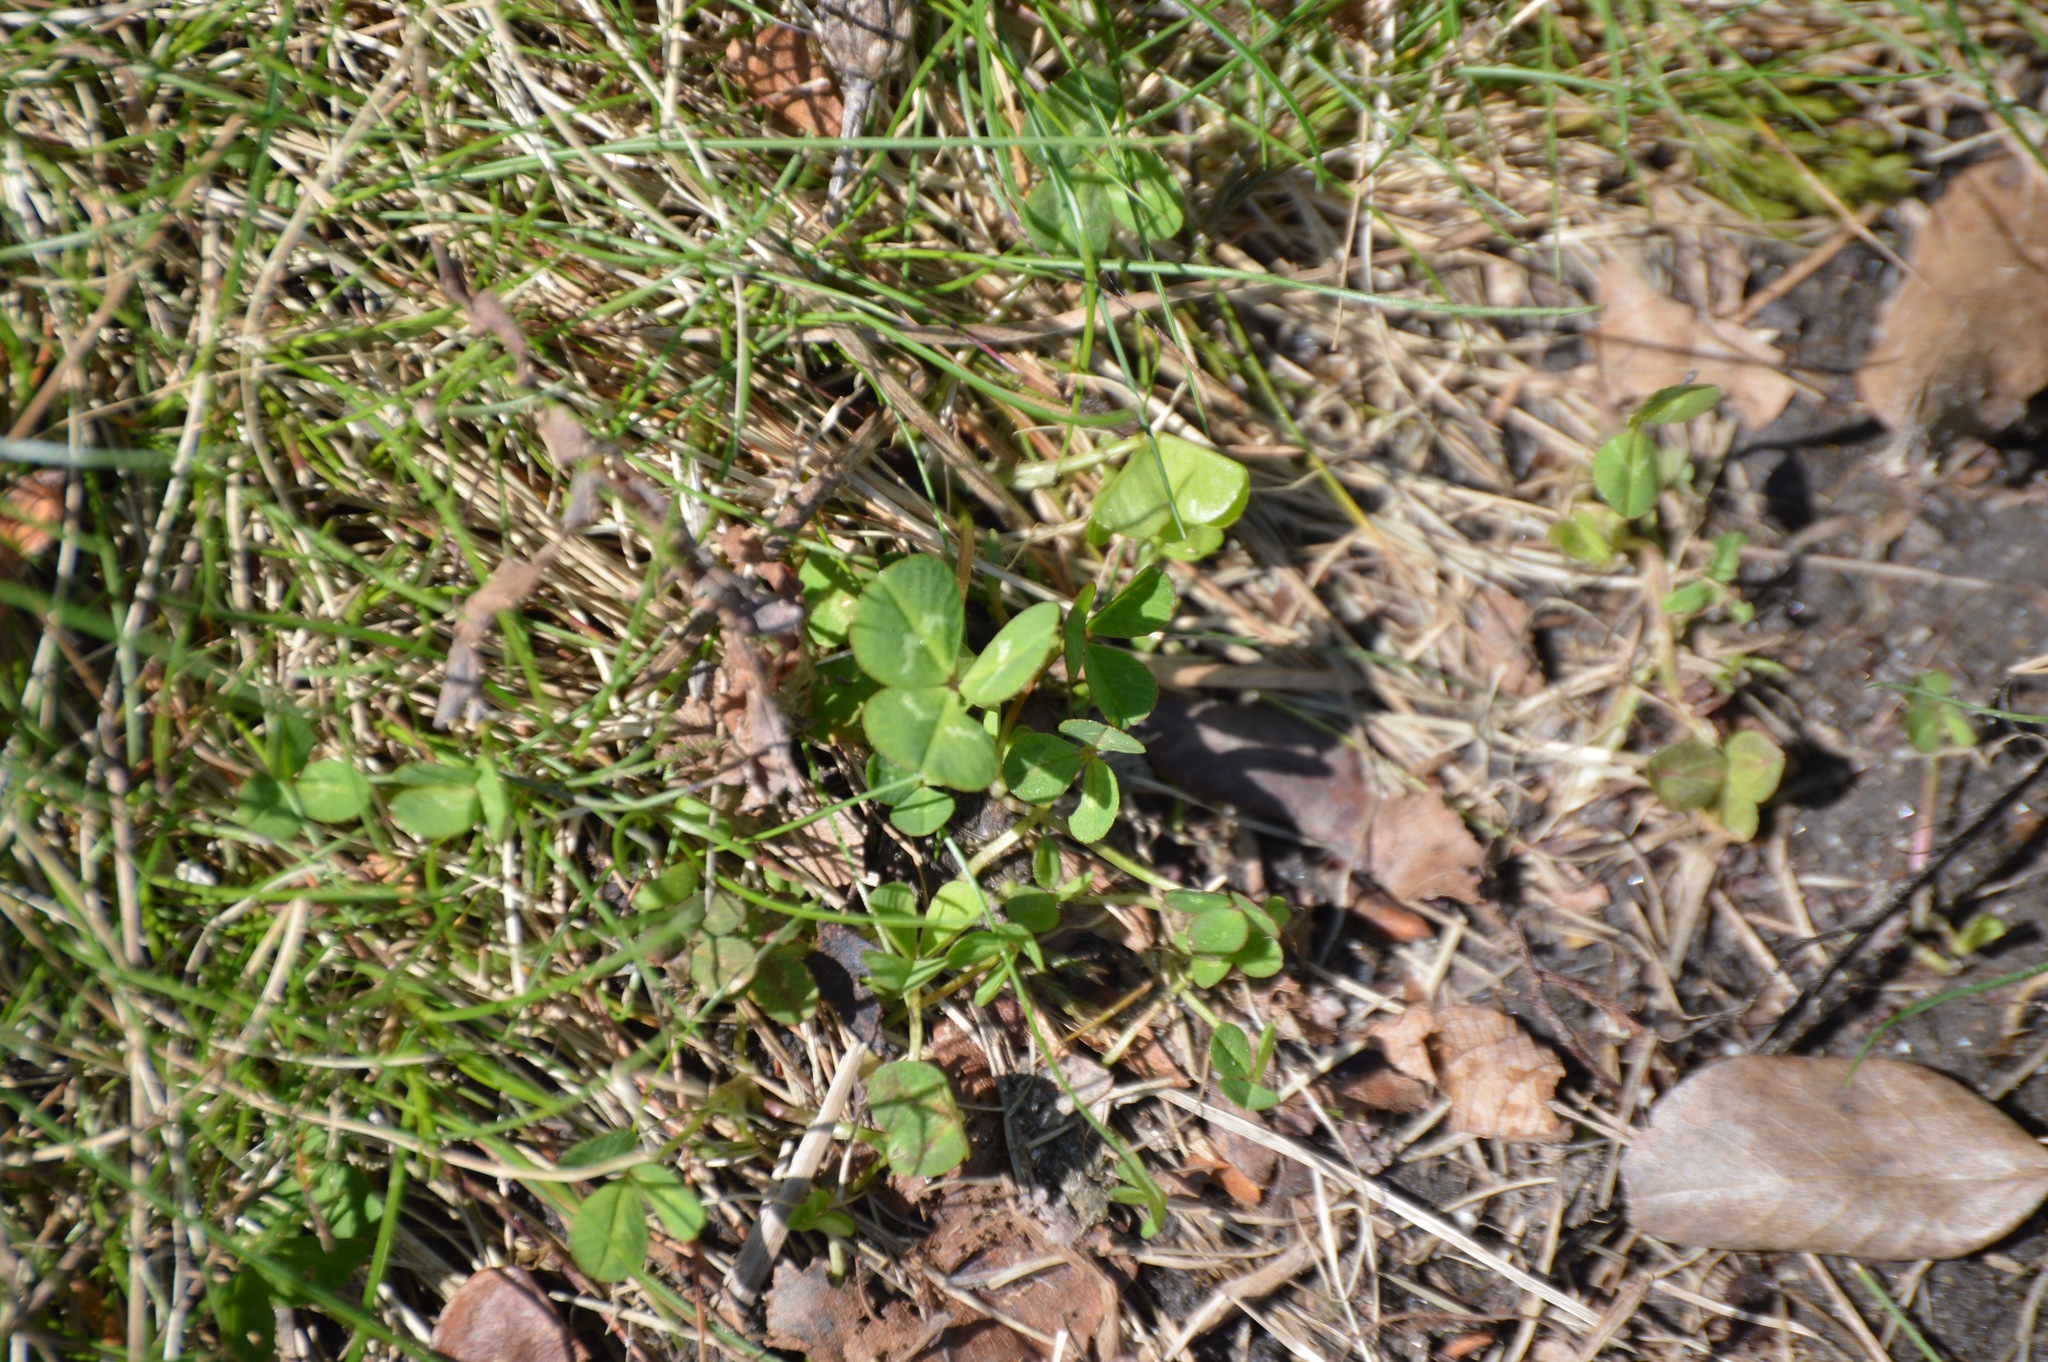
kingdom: Plantae
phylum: Tracheophyta
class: Magnoliopsida
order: Fabales
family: Fabaceae
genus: Trifolium
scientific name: Trifolium repens
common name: White clover
